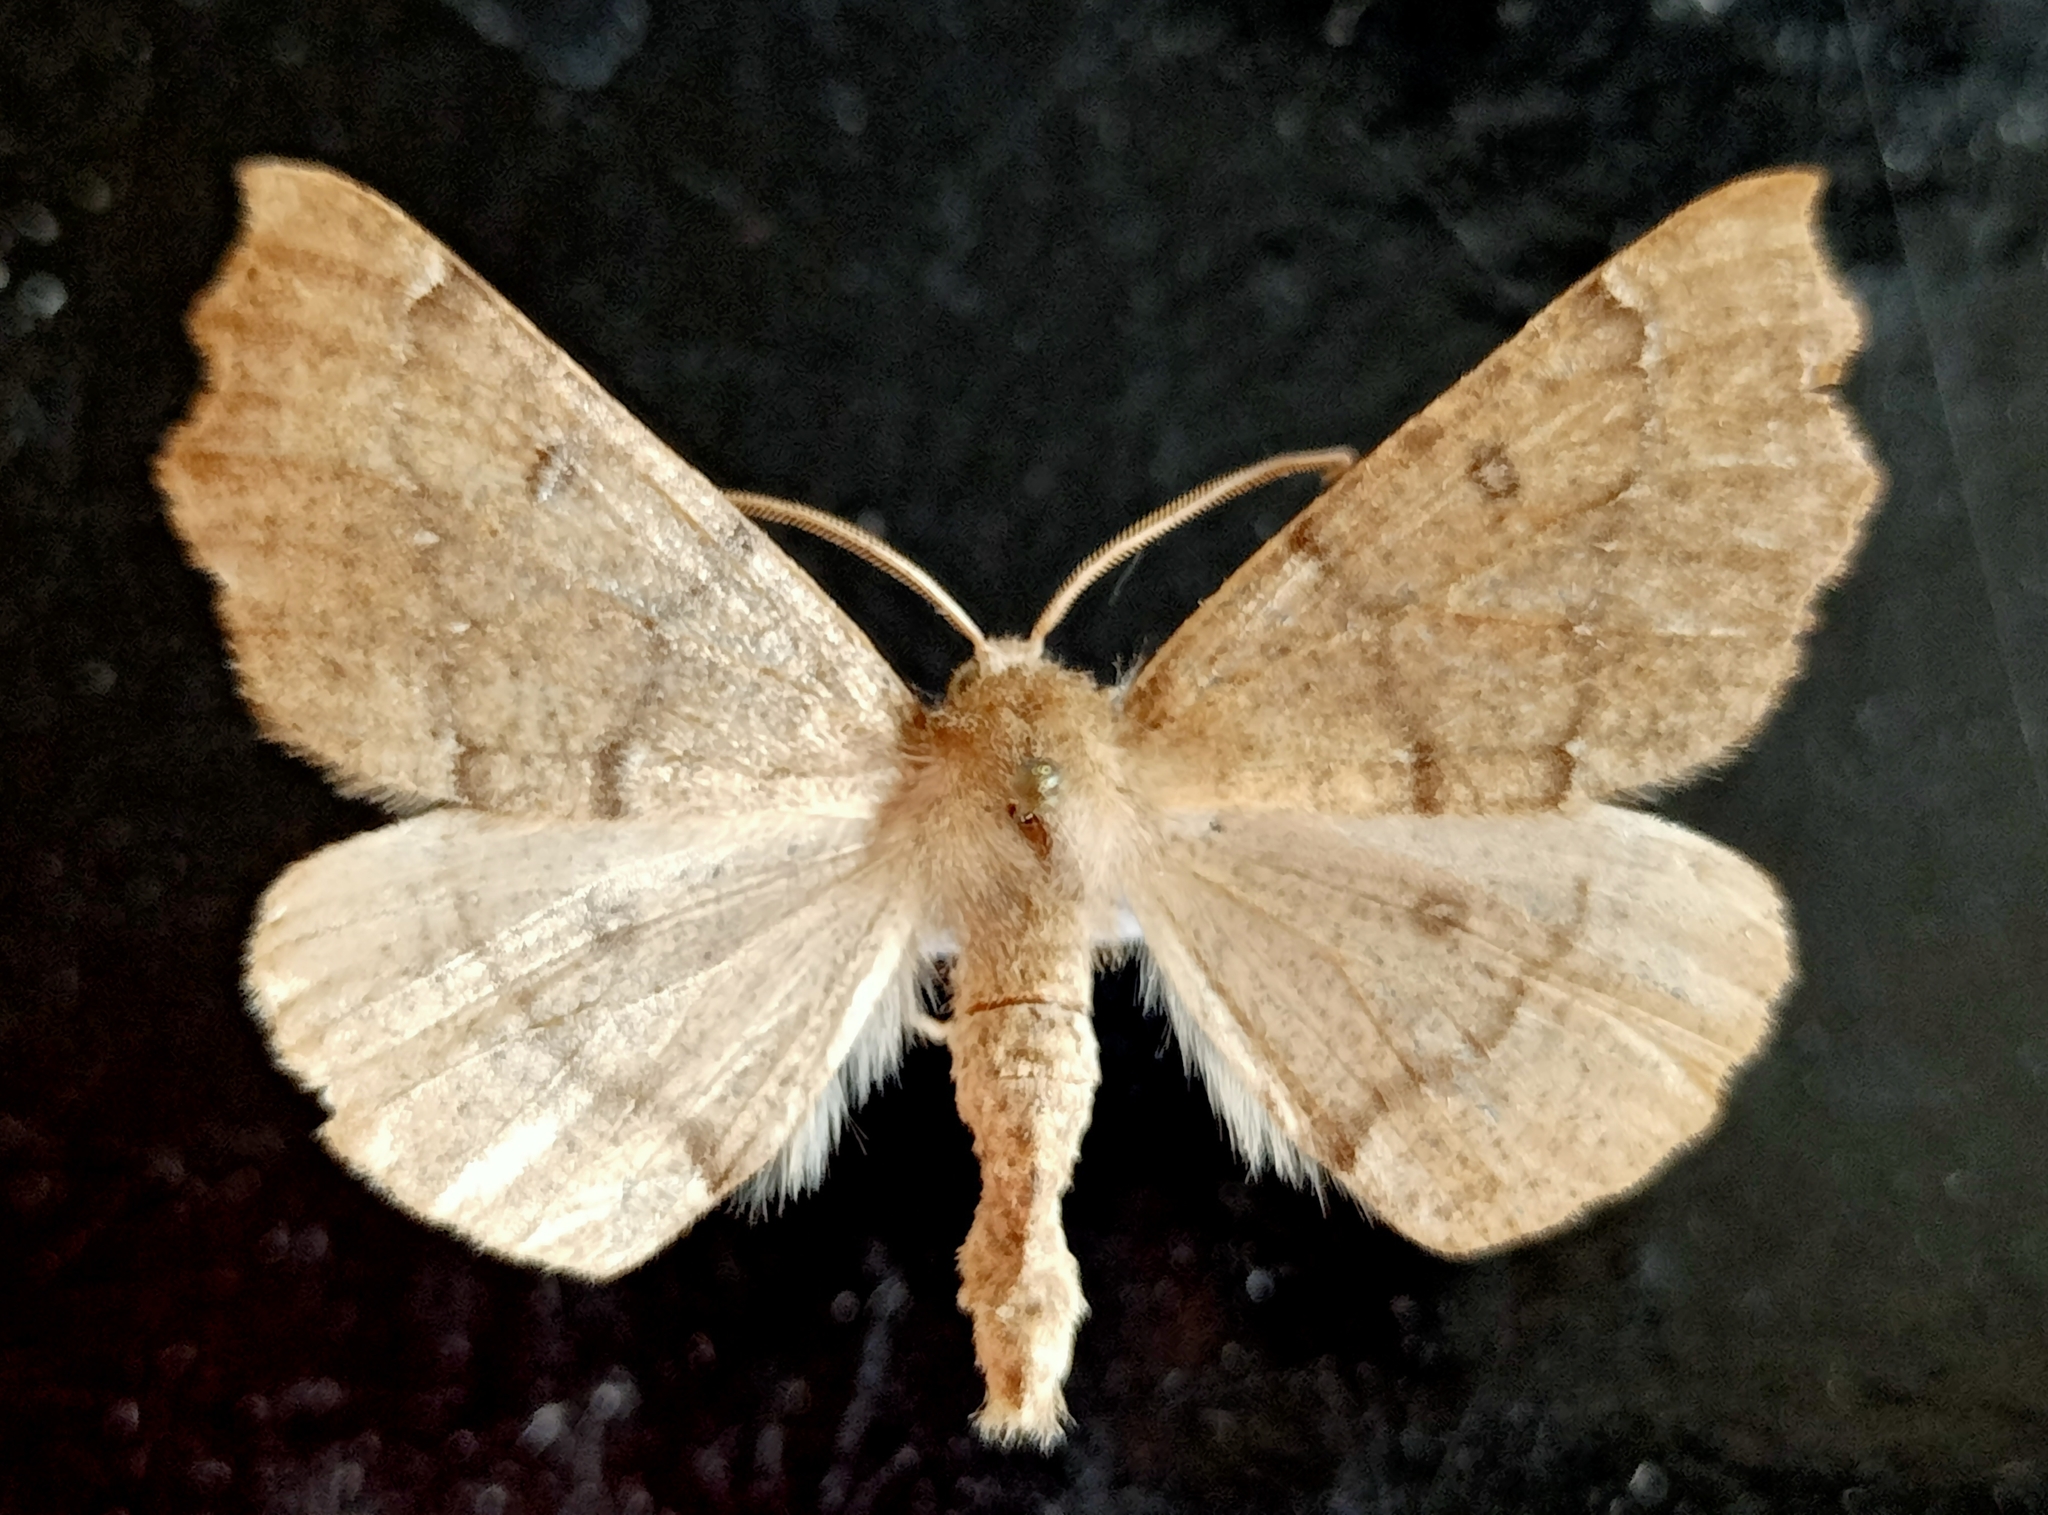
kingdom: Animalia
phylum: Arthropoda
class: Insecta
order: Lepidoptera
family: Geometridae
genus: Odontopera
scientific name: Odontopera bidentata
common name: Scalloped hazel
